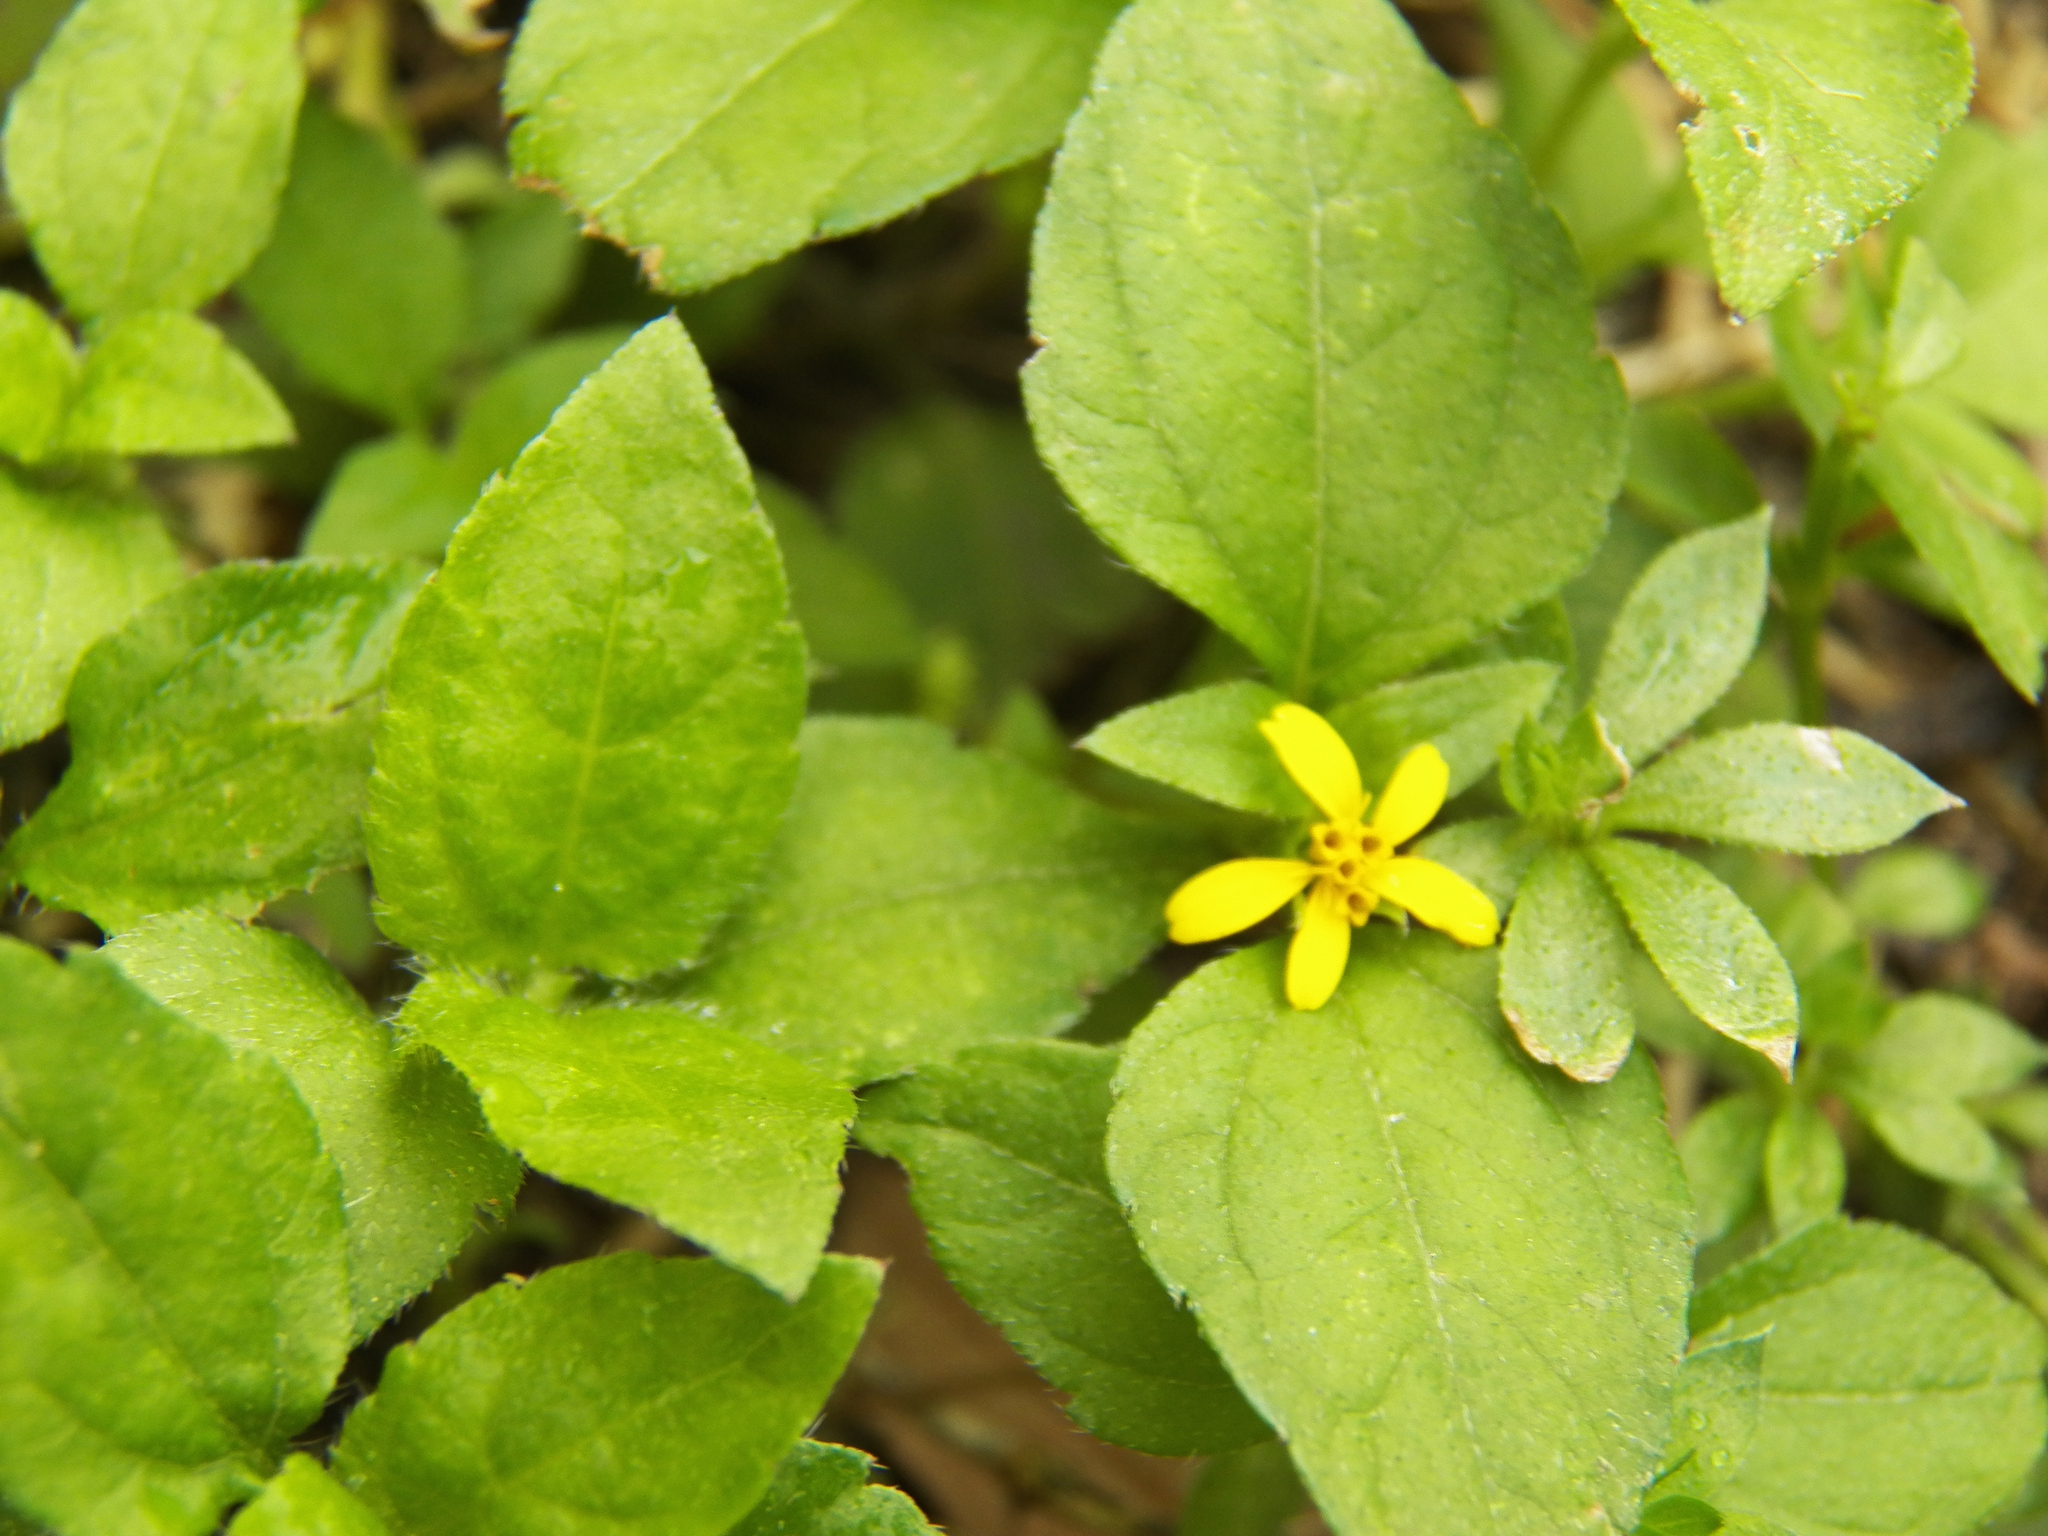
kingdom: Plantae
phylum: Tracheophyta
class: Magnoliopsida
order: Asterales
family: Asteraceae
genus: Calyptocarpus
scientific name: Calyptocarpus vialis
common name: Straggler daisy
